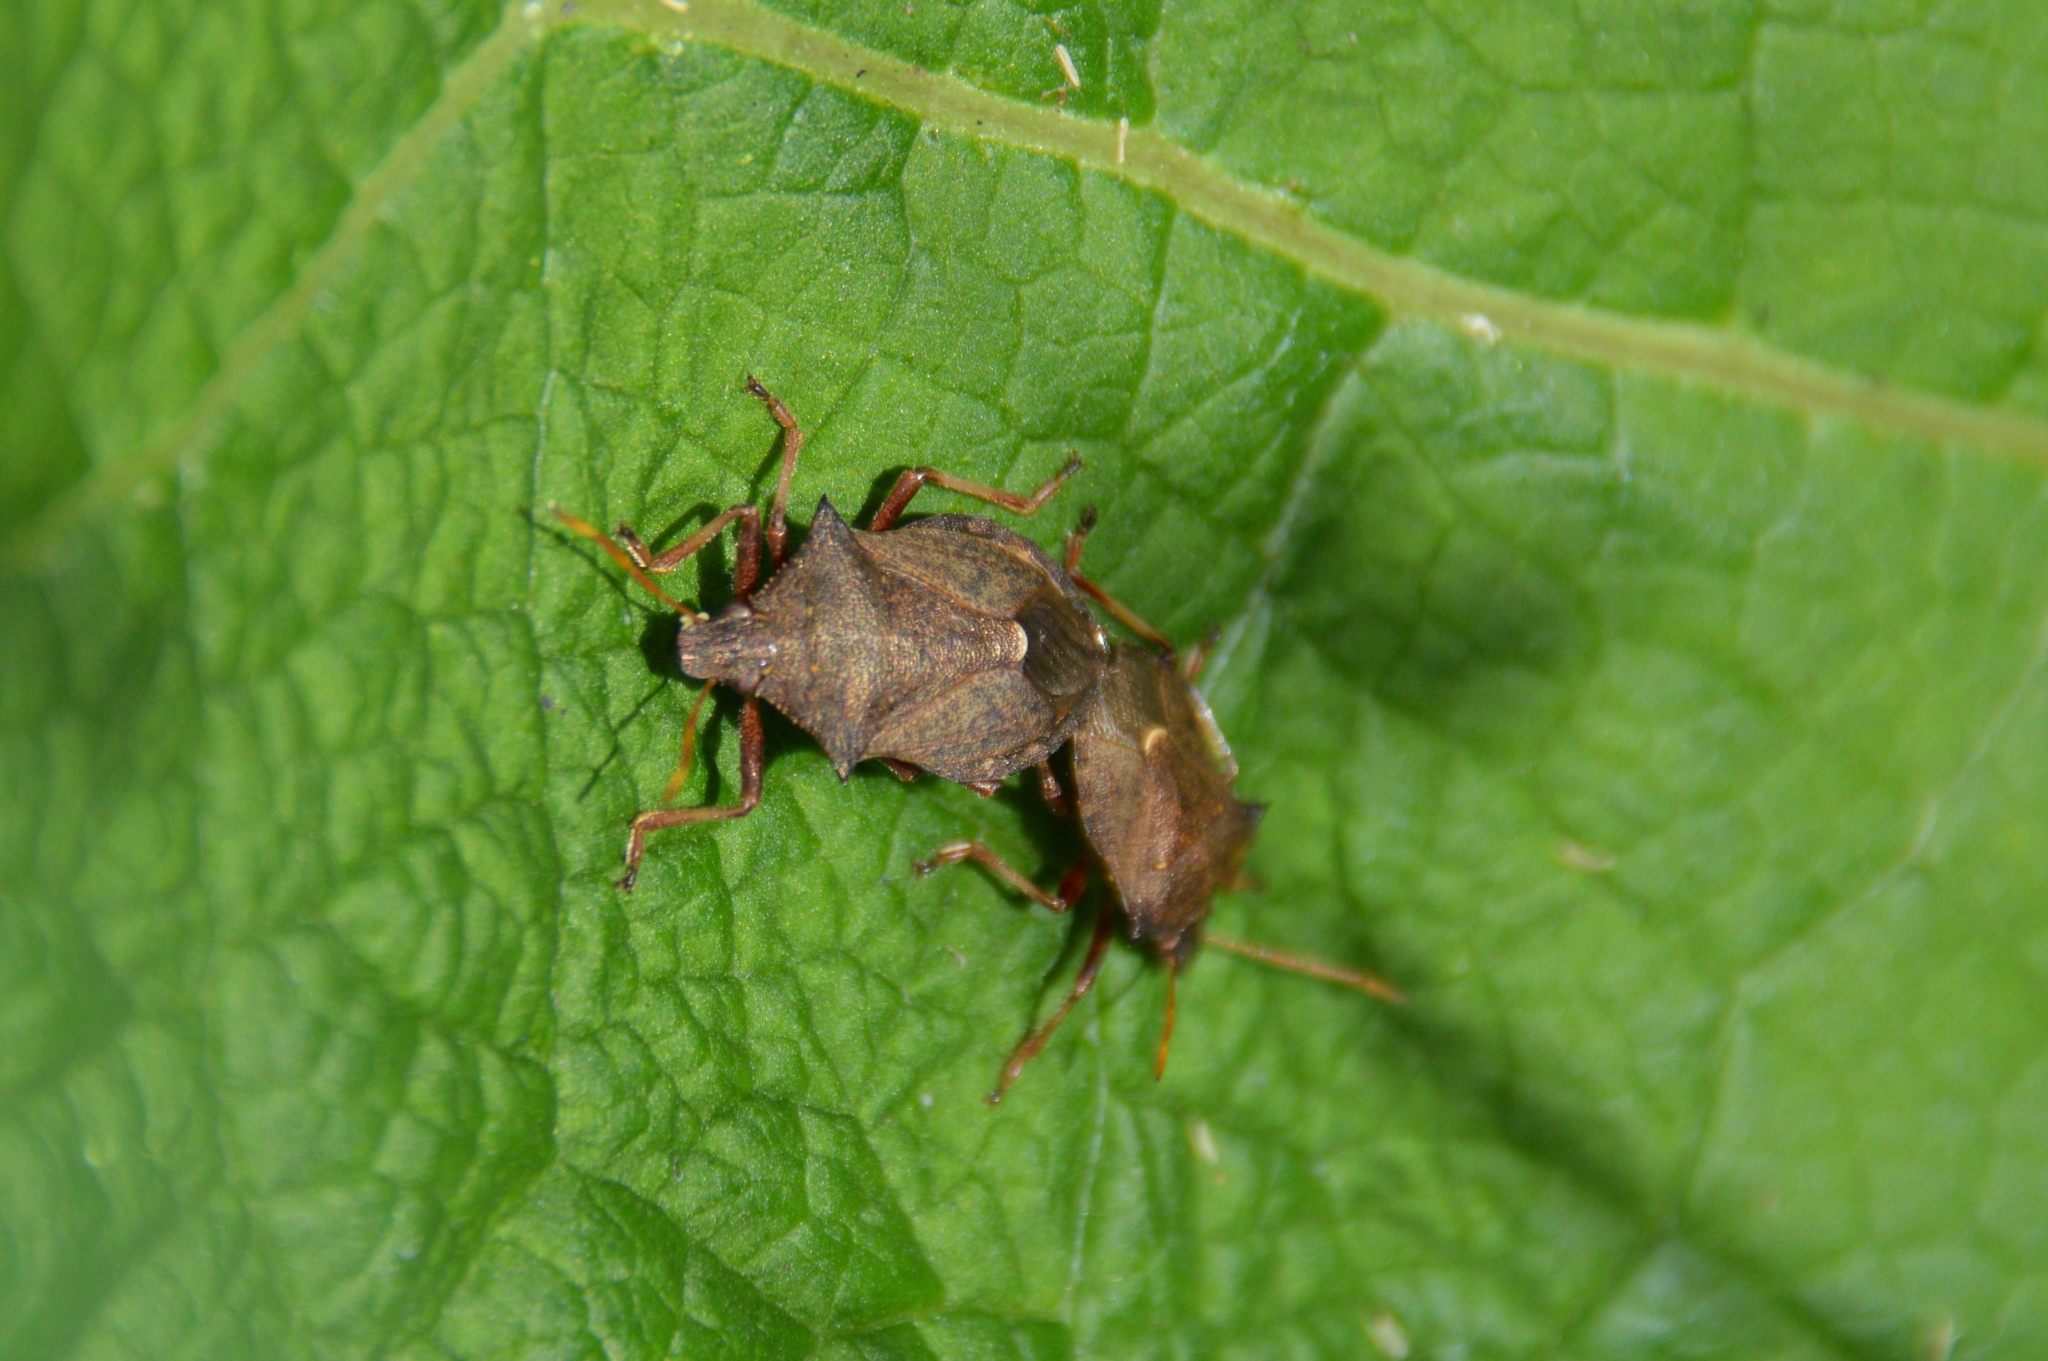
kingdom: Animalia
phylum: Arthropoda
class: Insecta
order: Hemiptera
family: Pentatomidae
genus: Picromerus
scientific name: Picromerus bidens
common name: Spiked shieldbug
